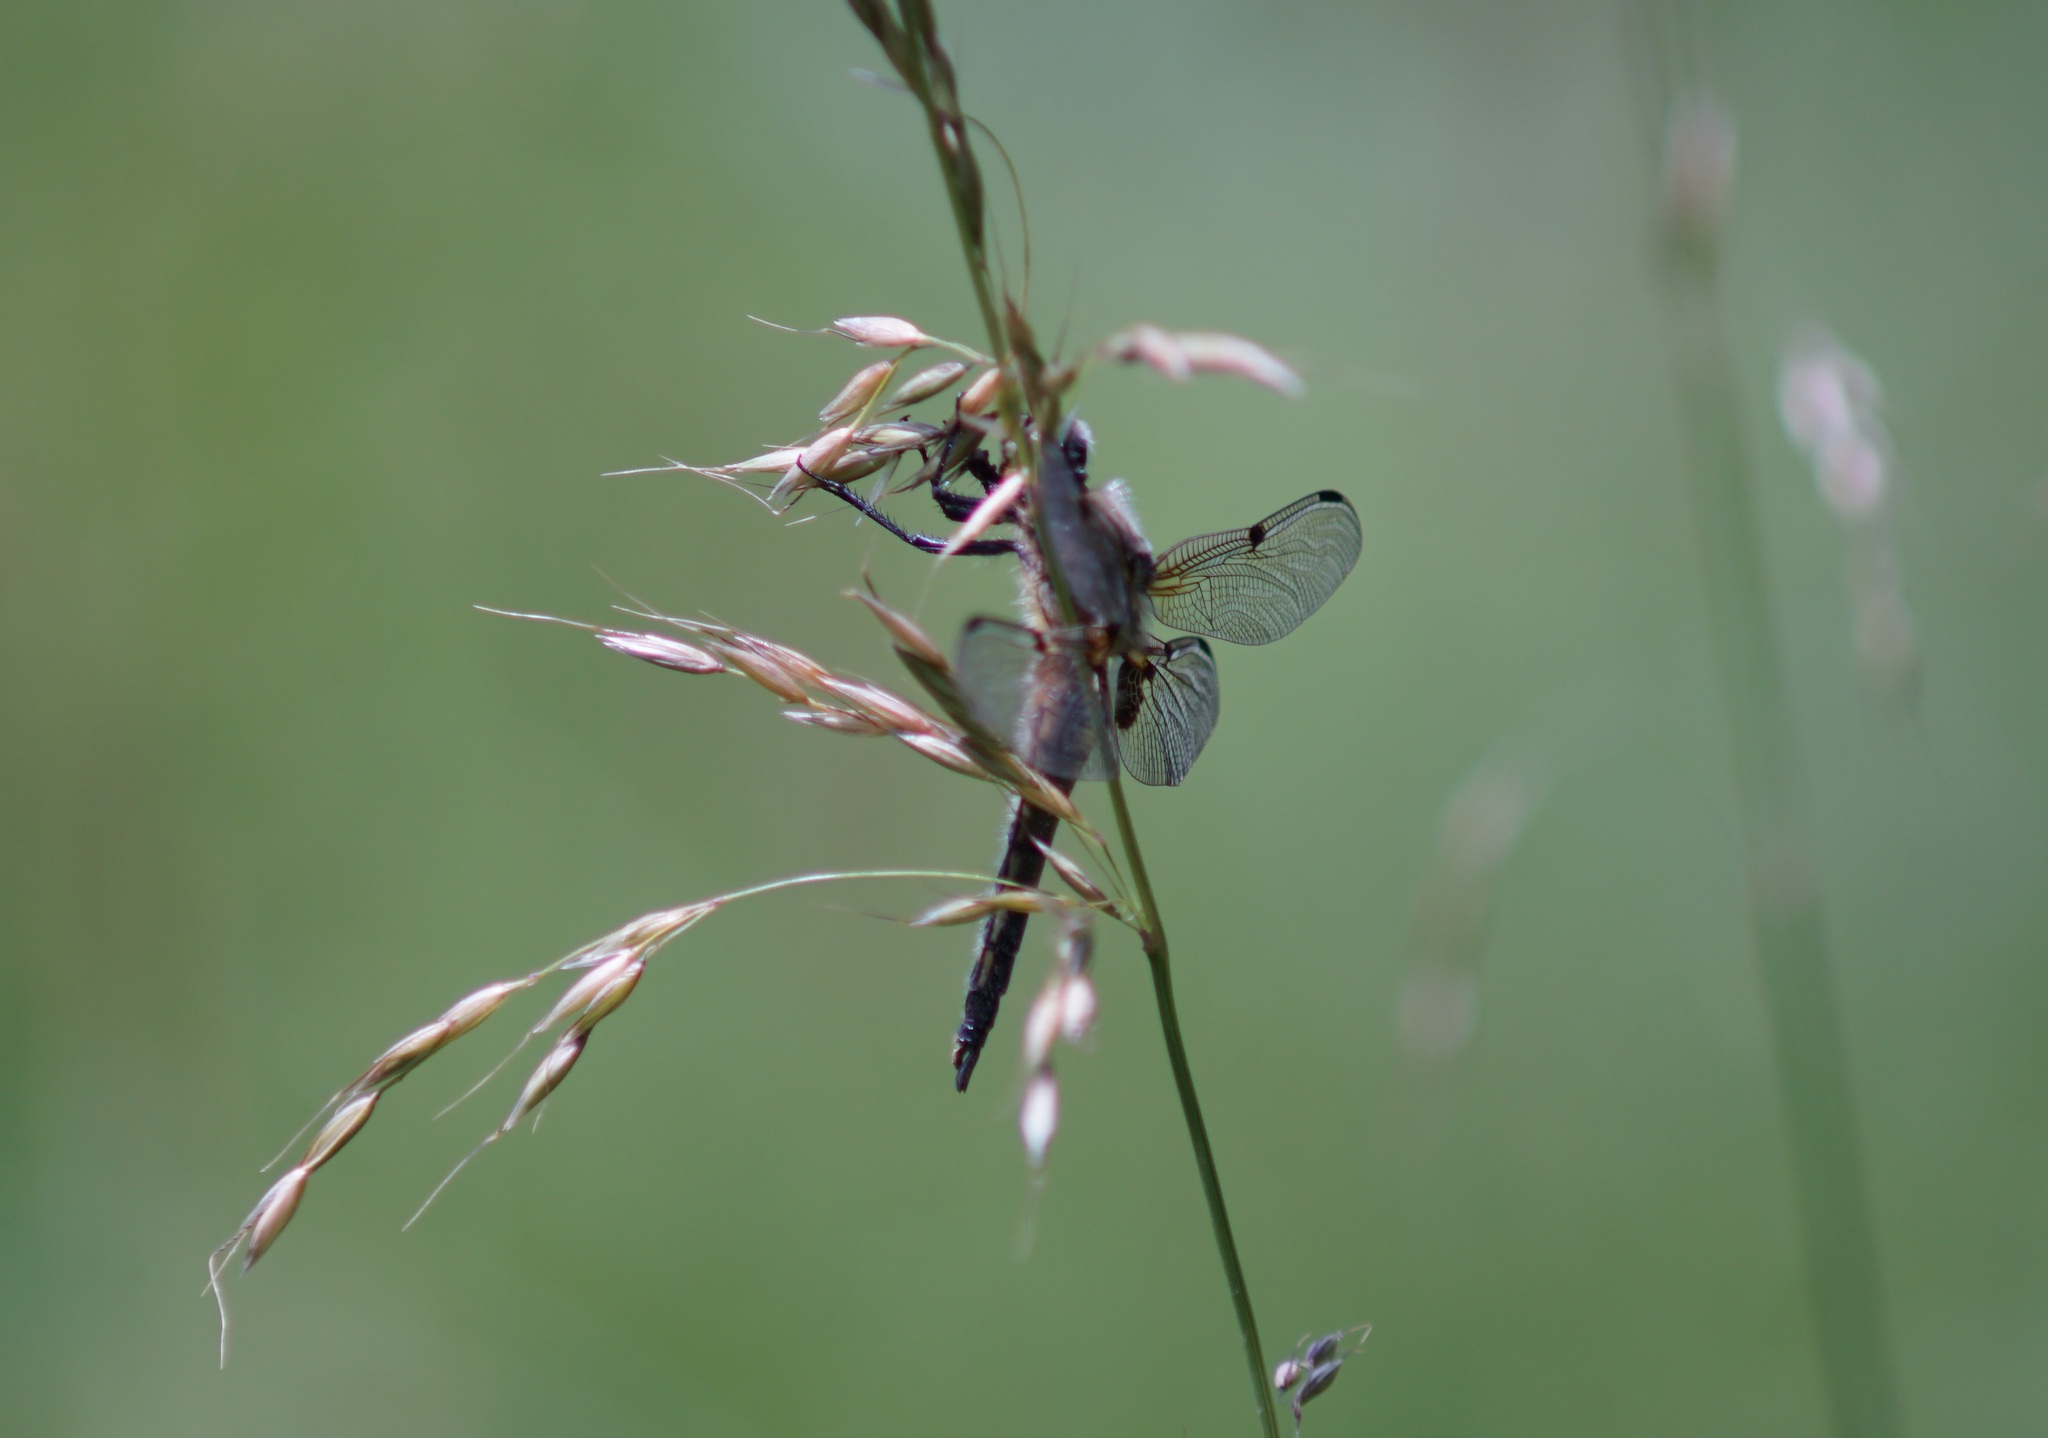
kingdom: Animalia
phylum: Arthropoda
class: Insecta
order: Odonata
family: Libellulidae
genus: Libellula
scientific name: Libellula quadrimaculata
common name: Four-spotted chaser
